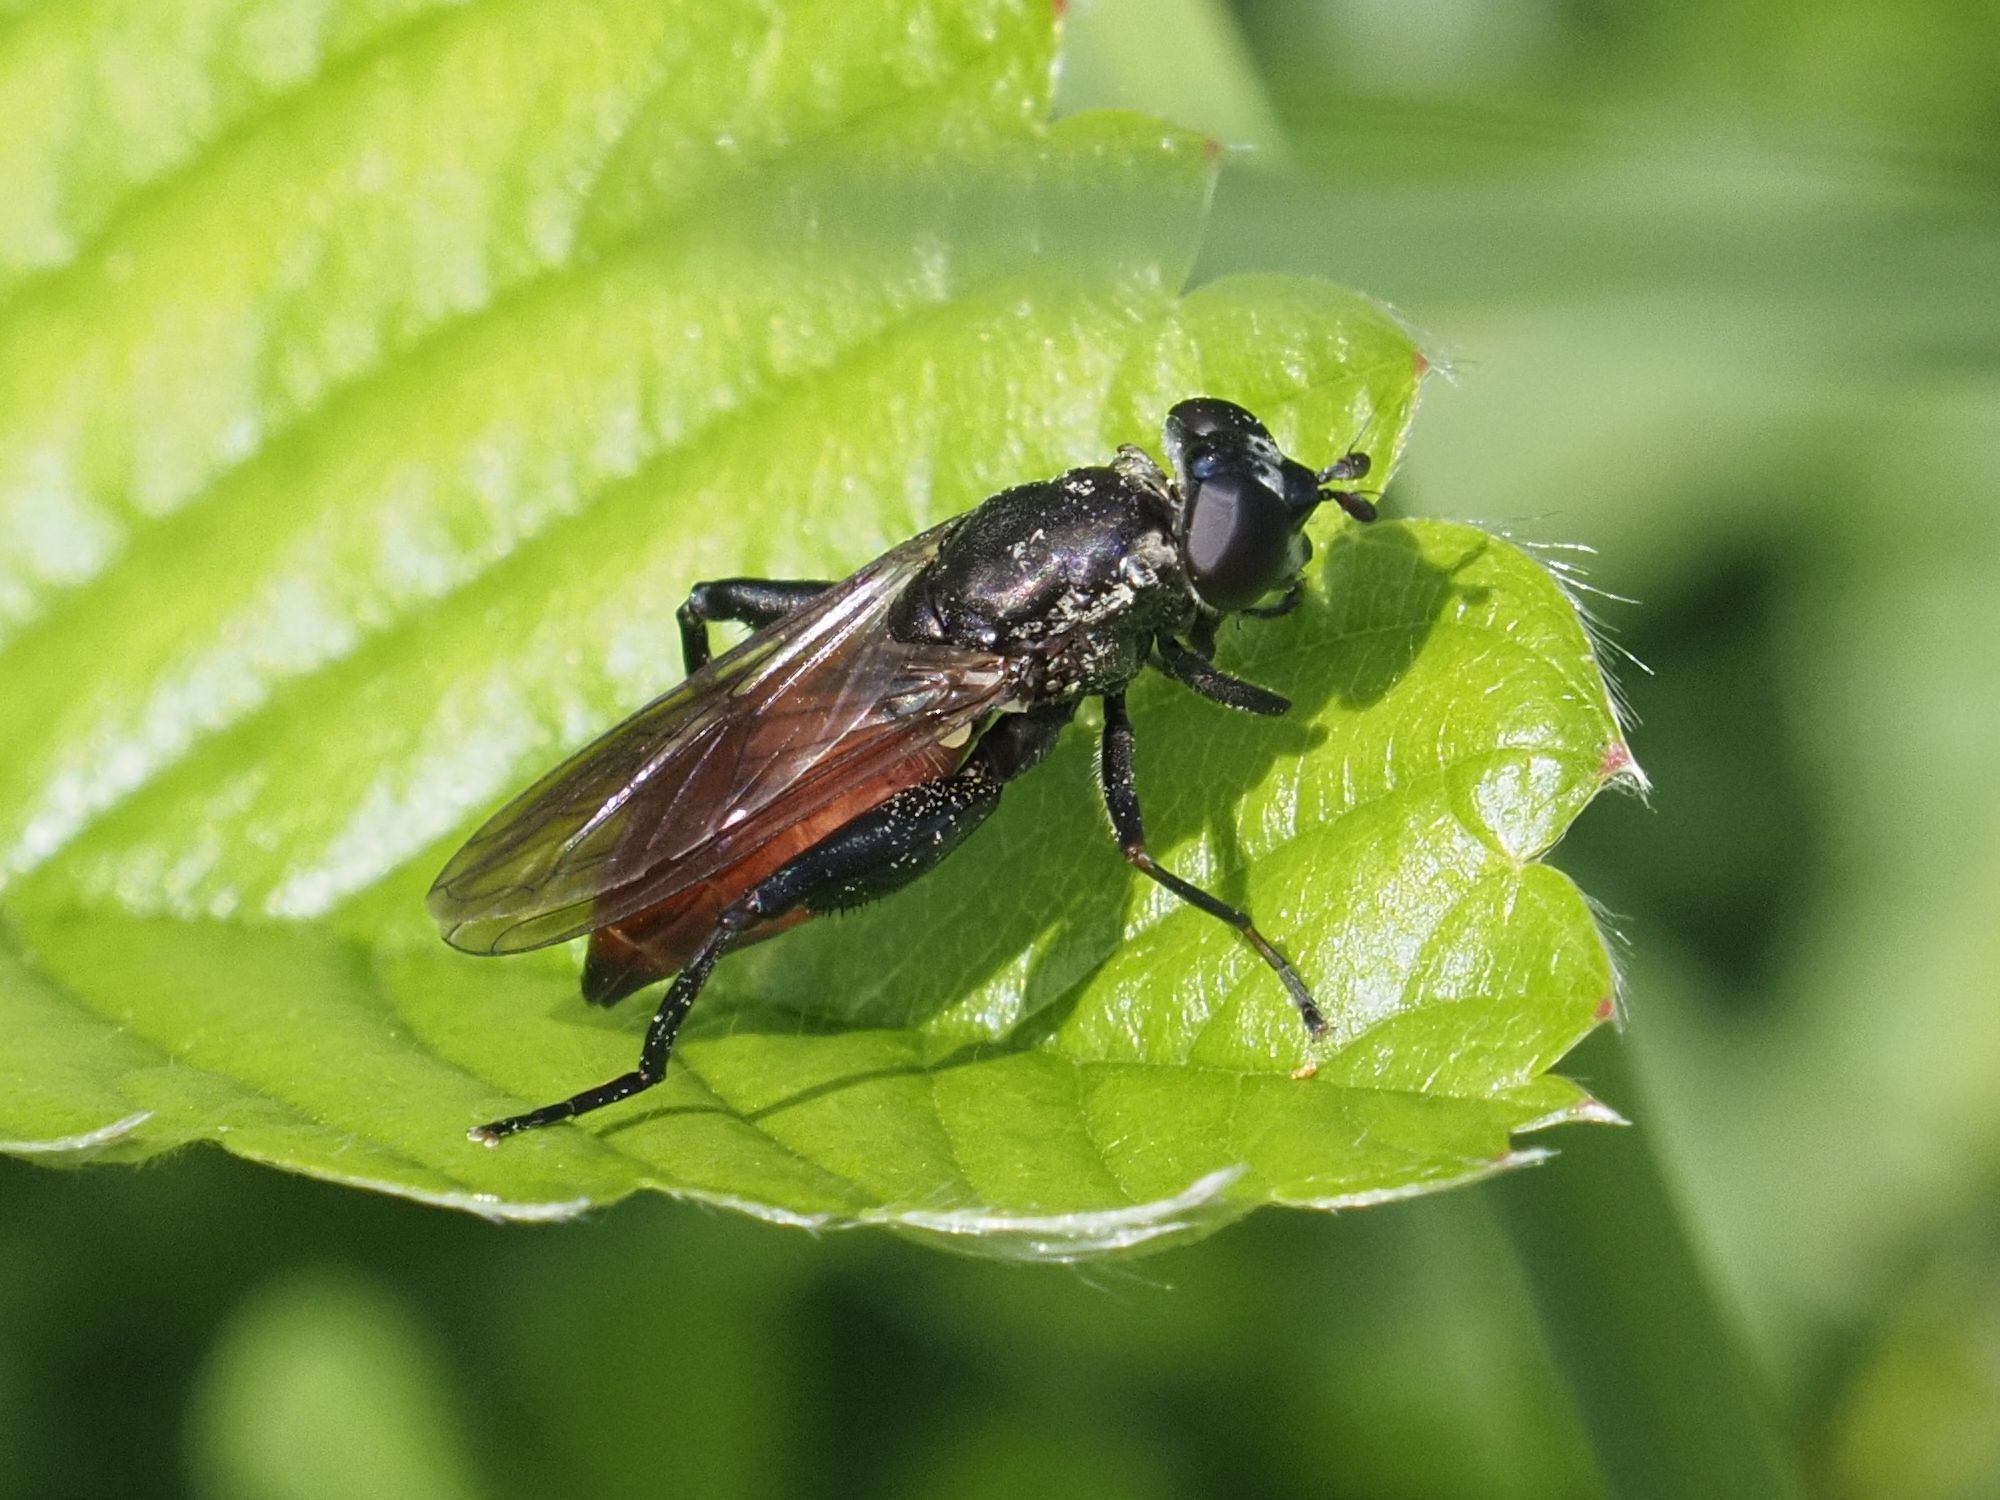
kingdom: Animalia
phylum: Arthropoda
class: Insecta
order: Diptera
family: Syrphidae
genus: Chalcosyrphus
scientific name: Chalcosyrphus piger
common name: Short-haired leafwalker
